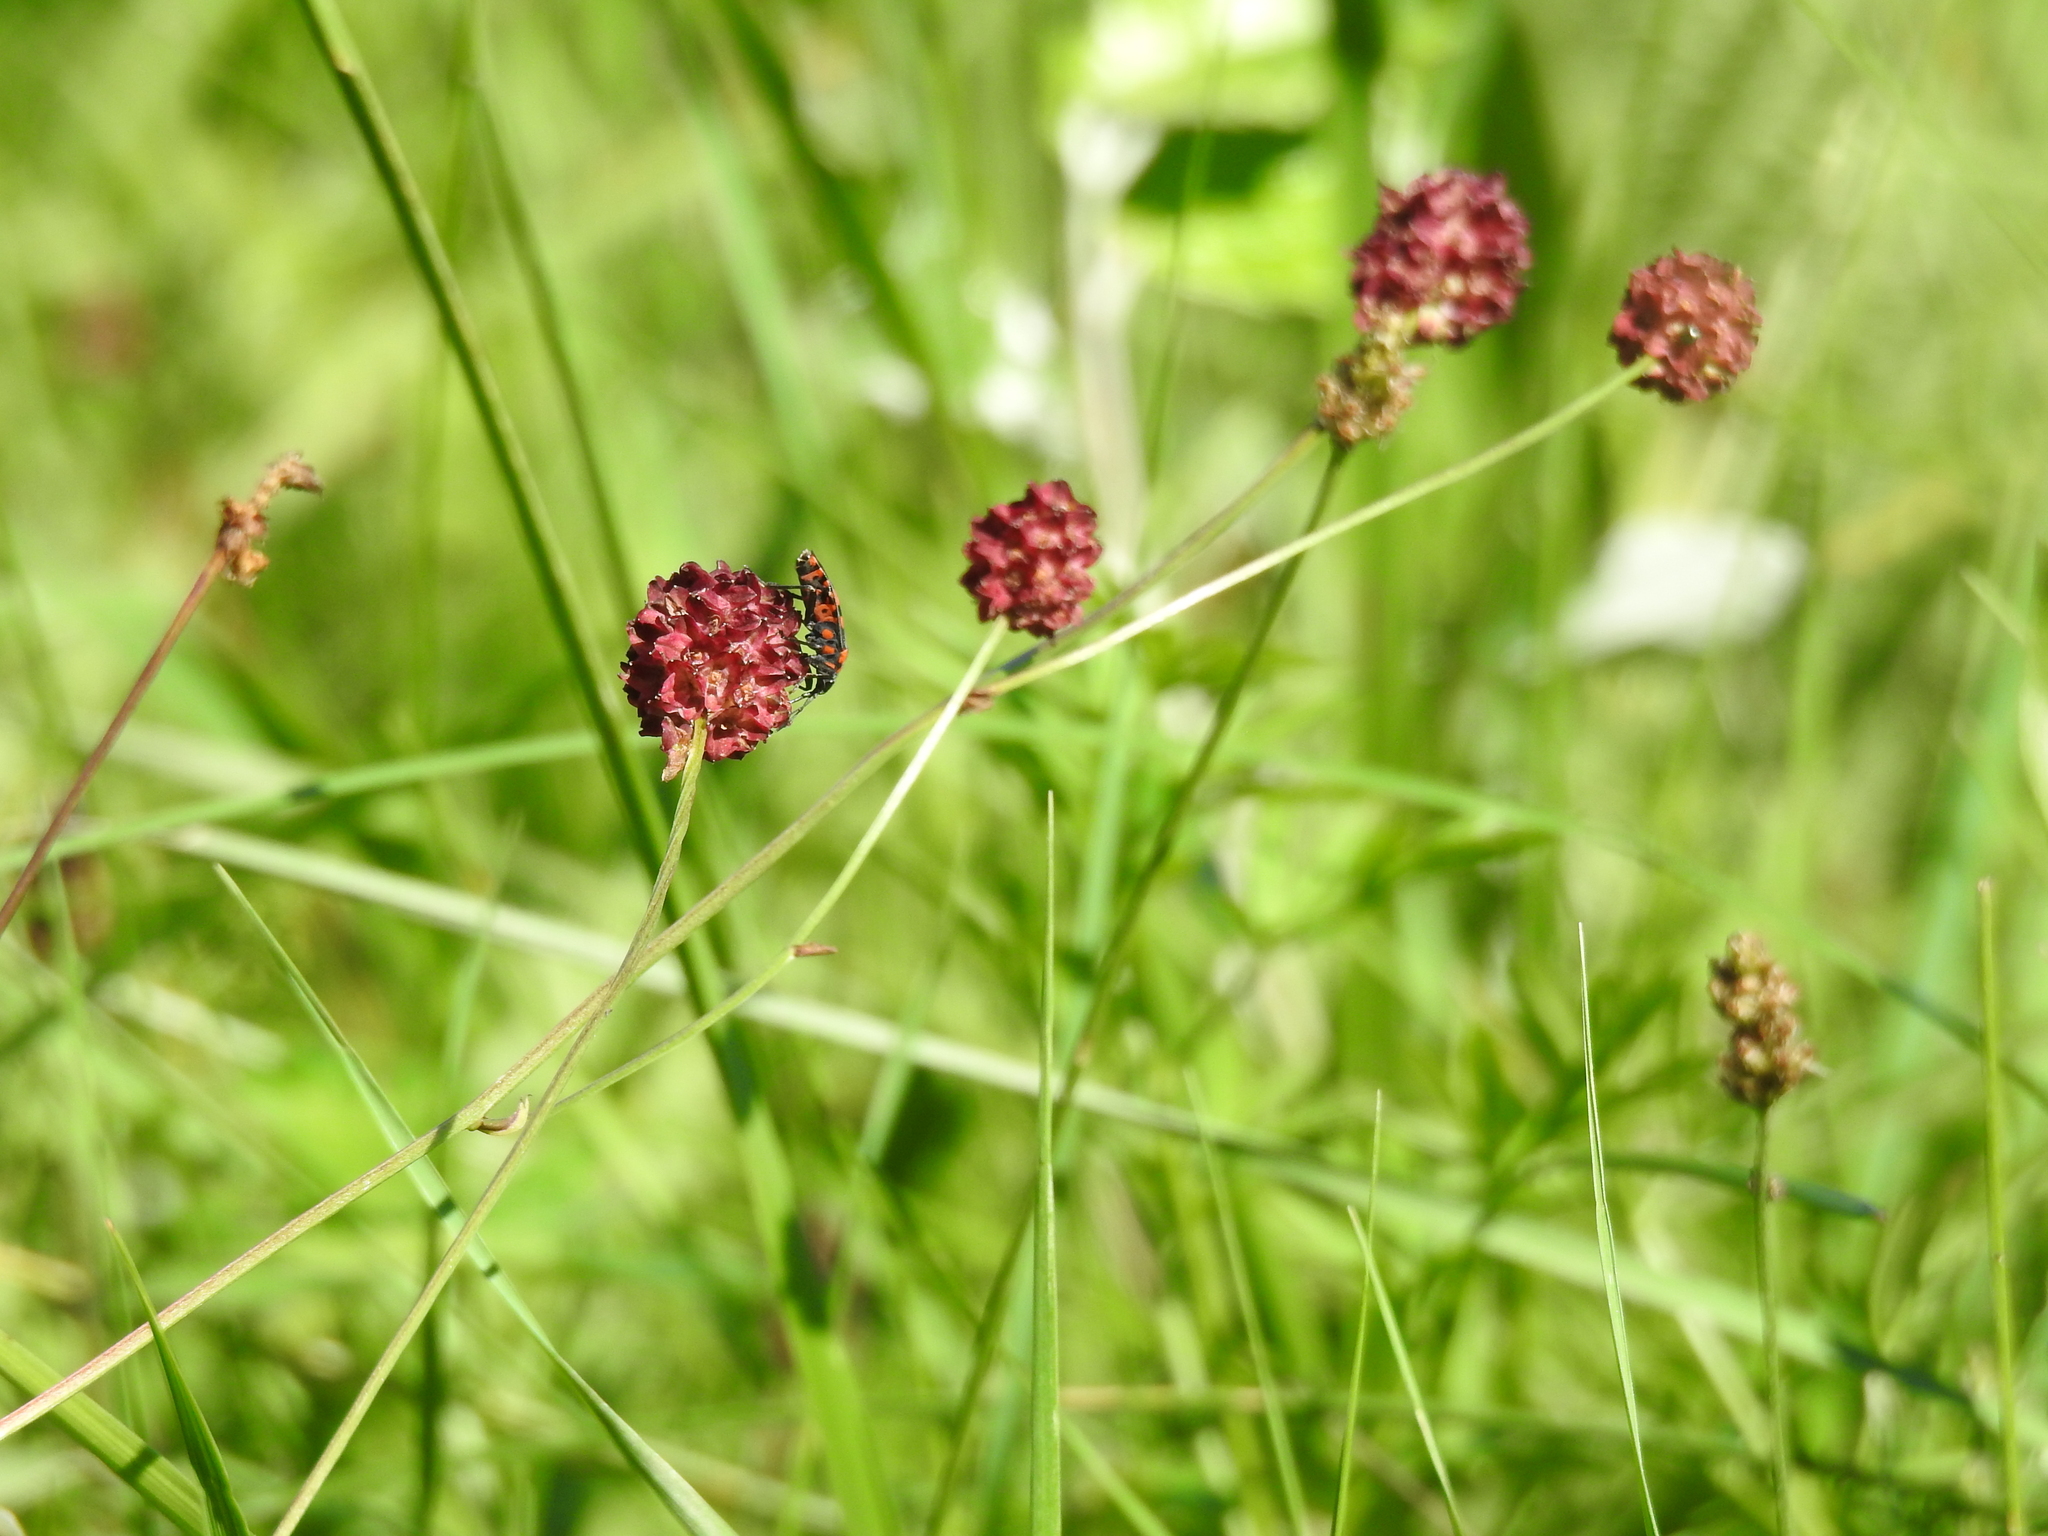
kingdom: Plantae
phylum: Tracheophyta
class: Magnoliopsida
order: Rosales
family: Rosaceae
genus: Sanguisorba
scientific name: Sanguisorba officinalis
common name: Great burnet
